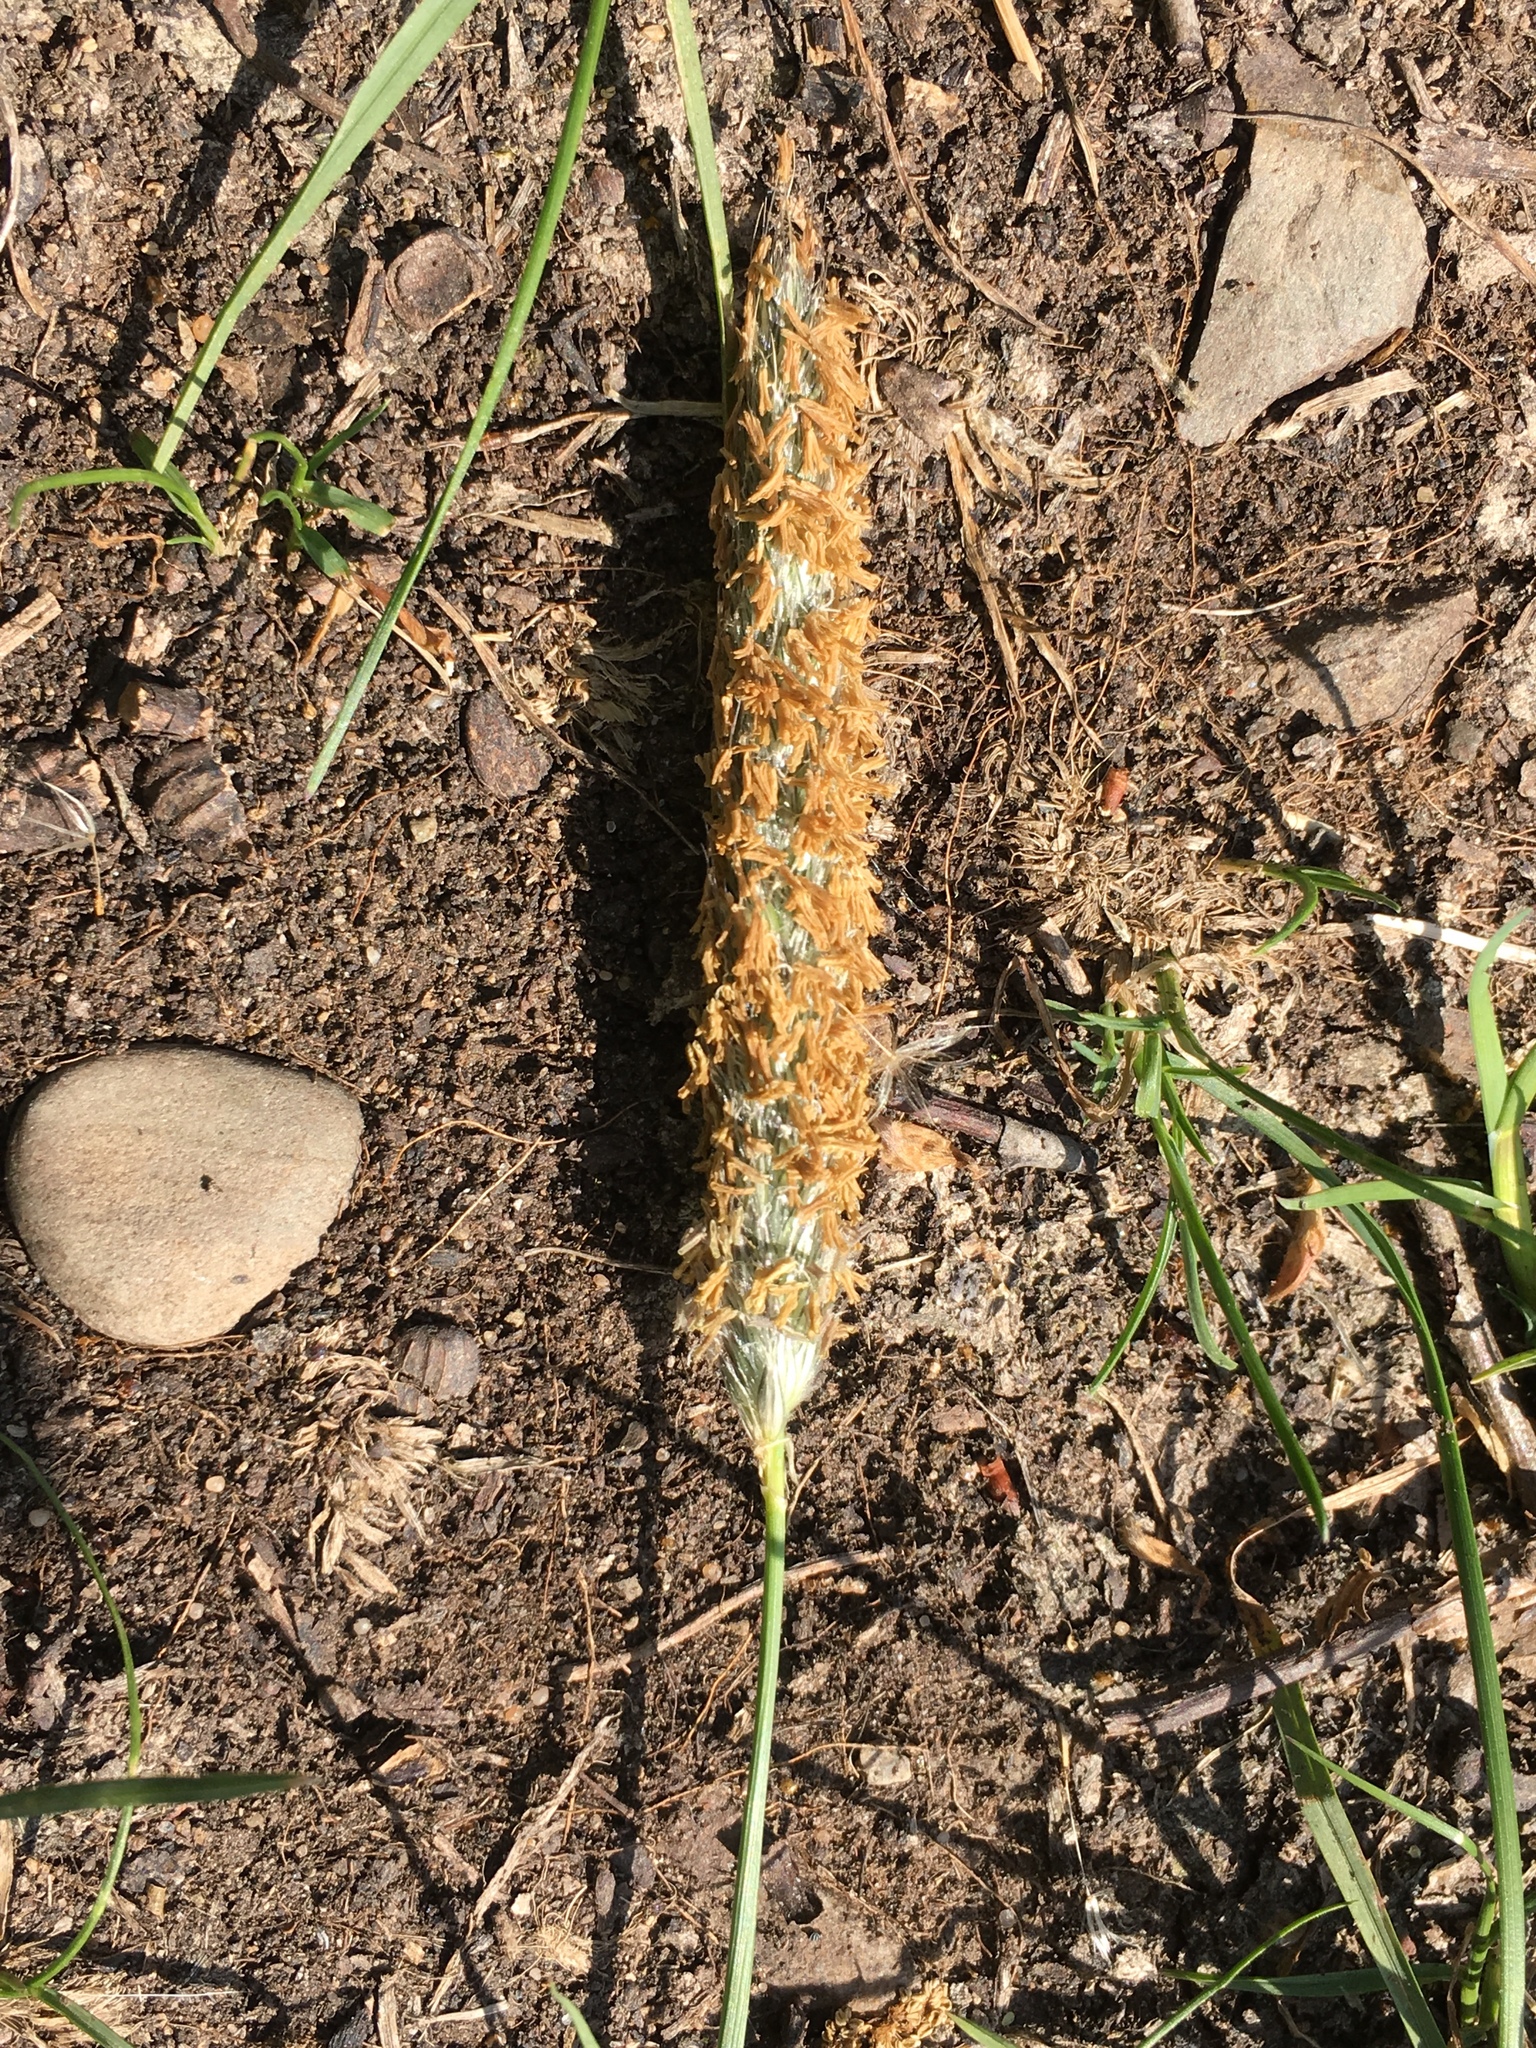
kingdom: Plantae
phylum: Tracheophyta
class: Liliopsida
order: Poales
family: Poaceae
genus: Alopecurus
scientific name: Alopecurus pratensis
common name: Meadow foxtail
